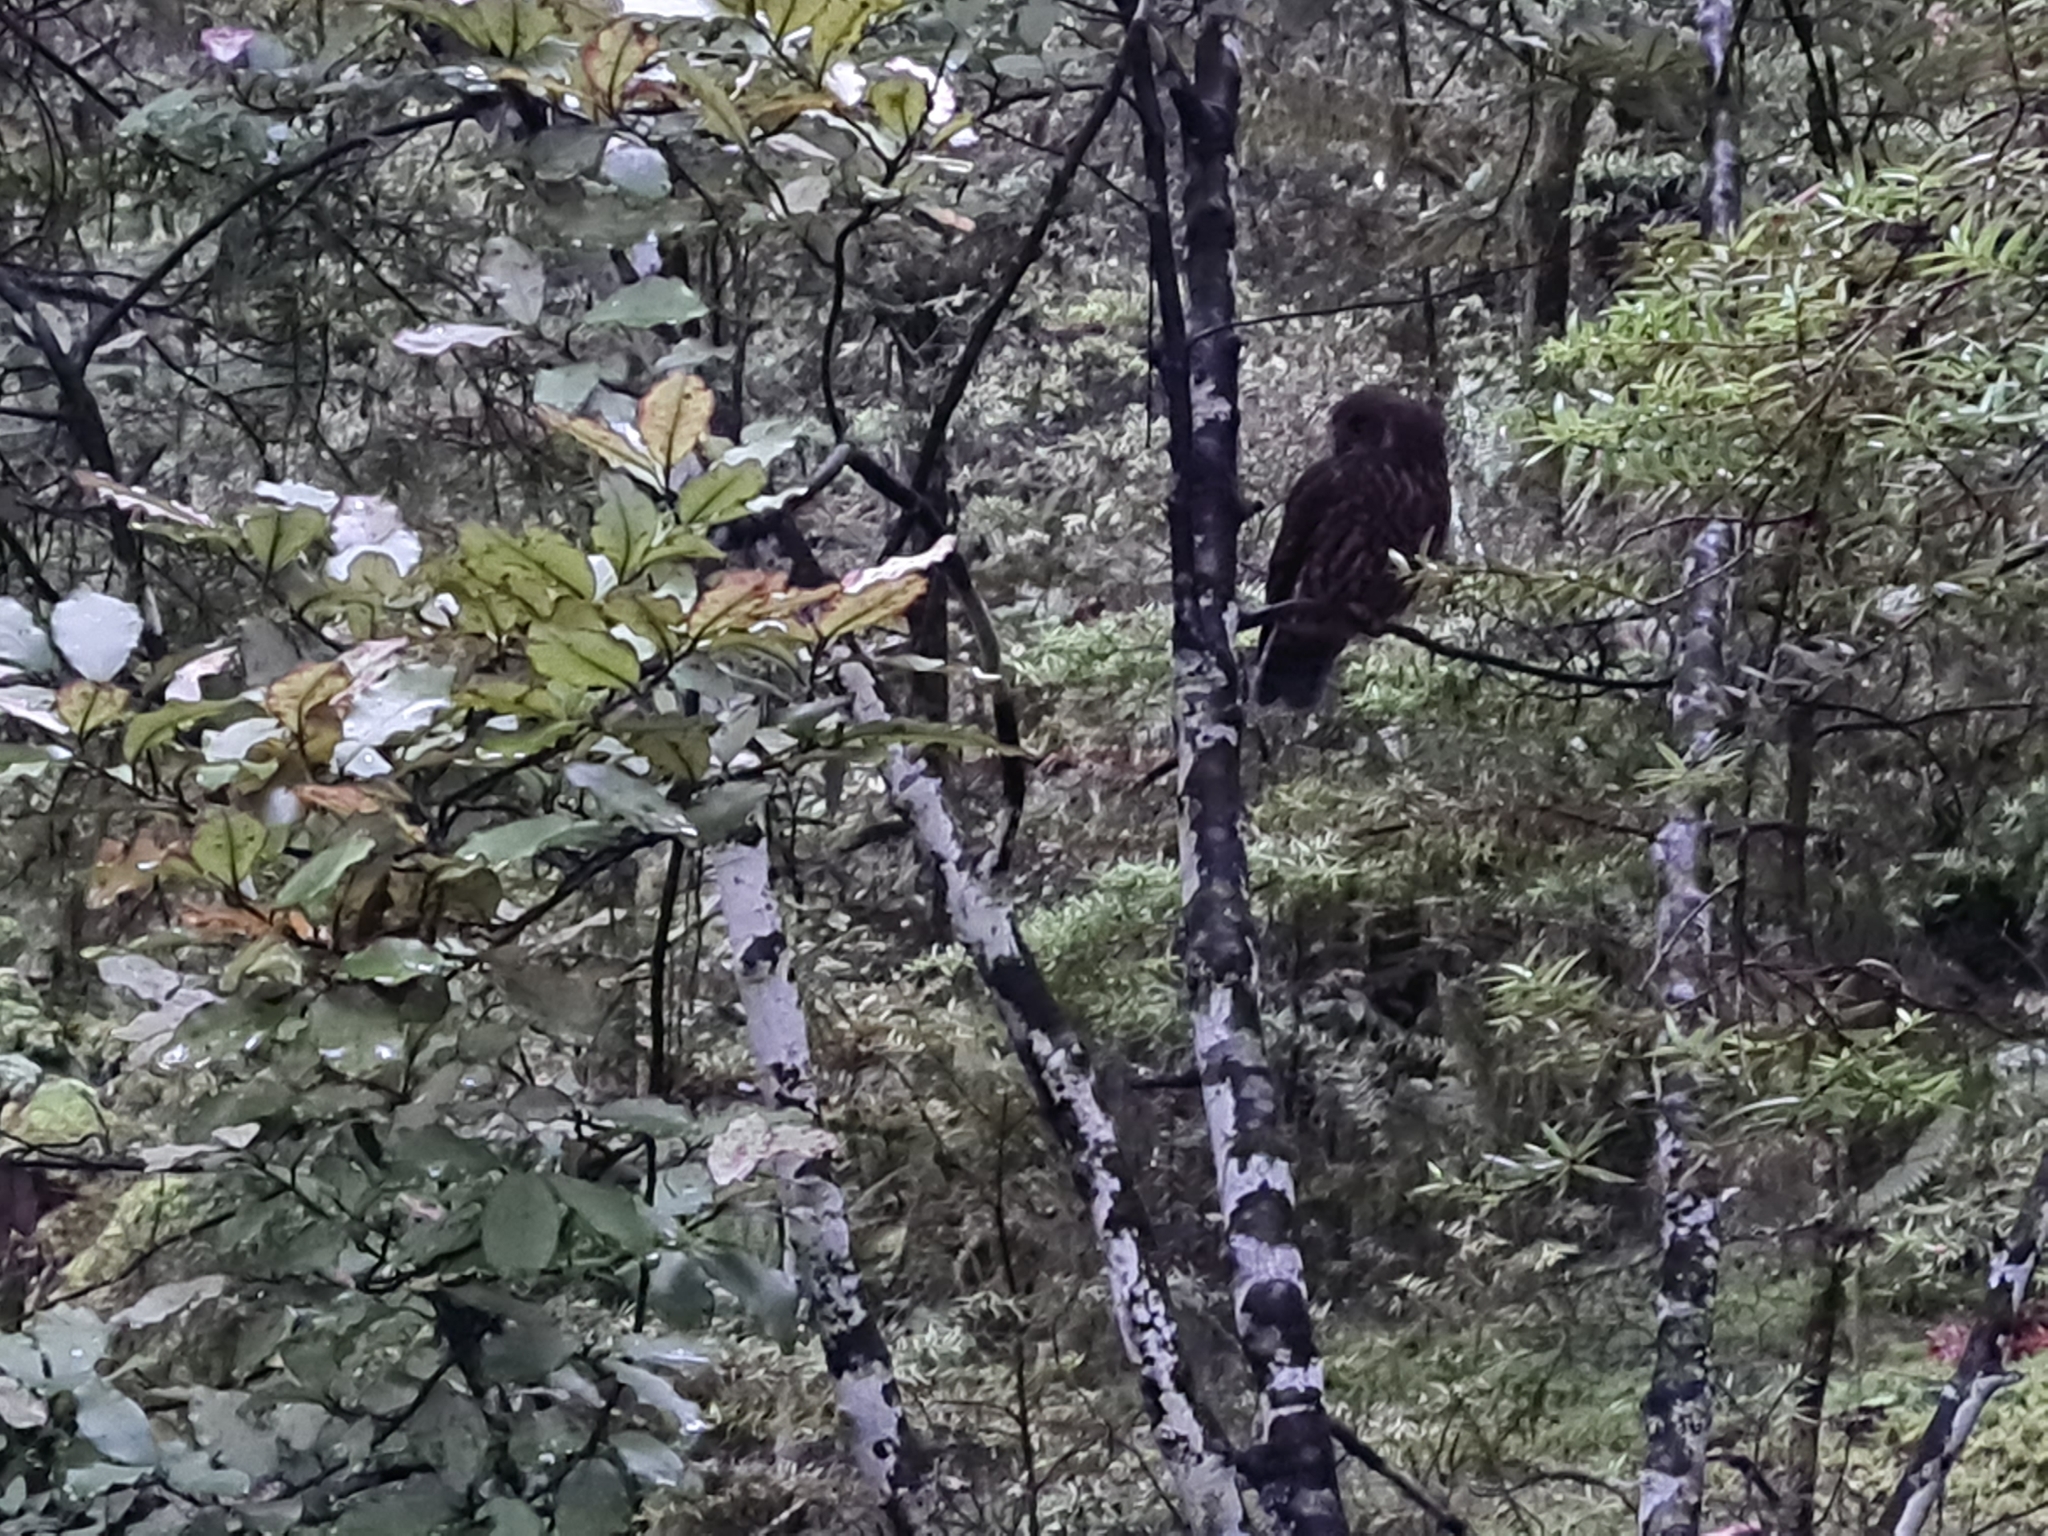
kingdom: Animalia
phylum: Chordata
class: Aves
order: Strigiformes
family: Strigidae
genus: Ninox
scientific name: Ninox novaeseelandiae
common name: Morepork
